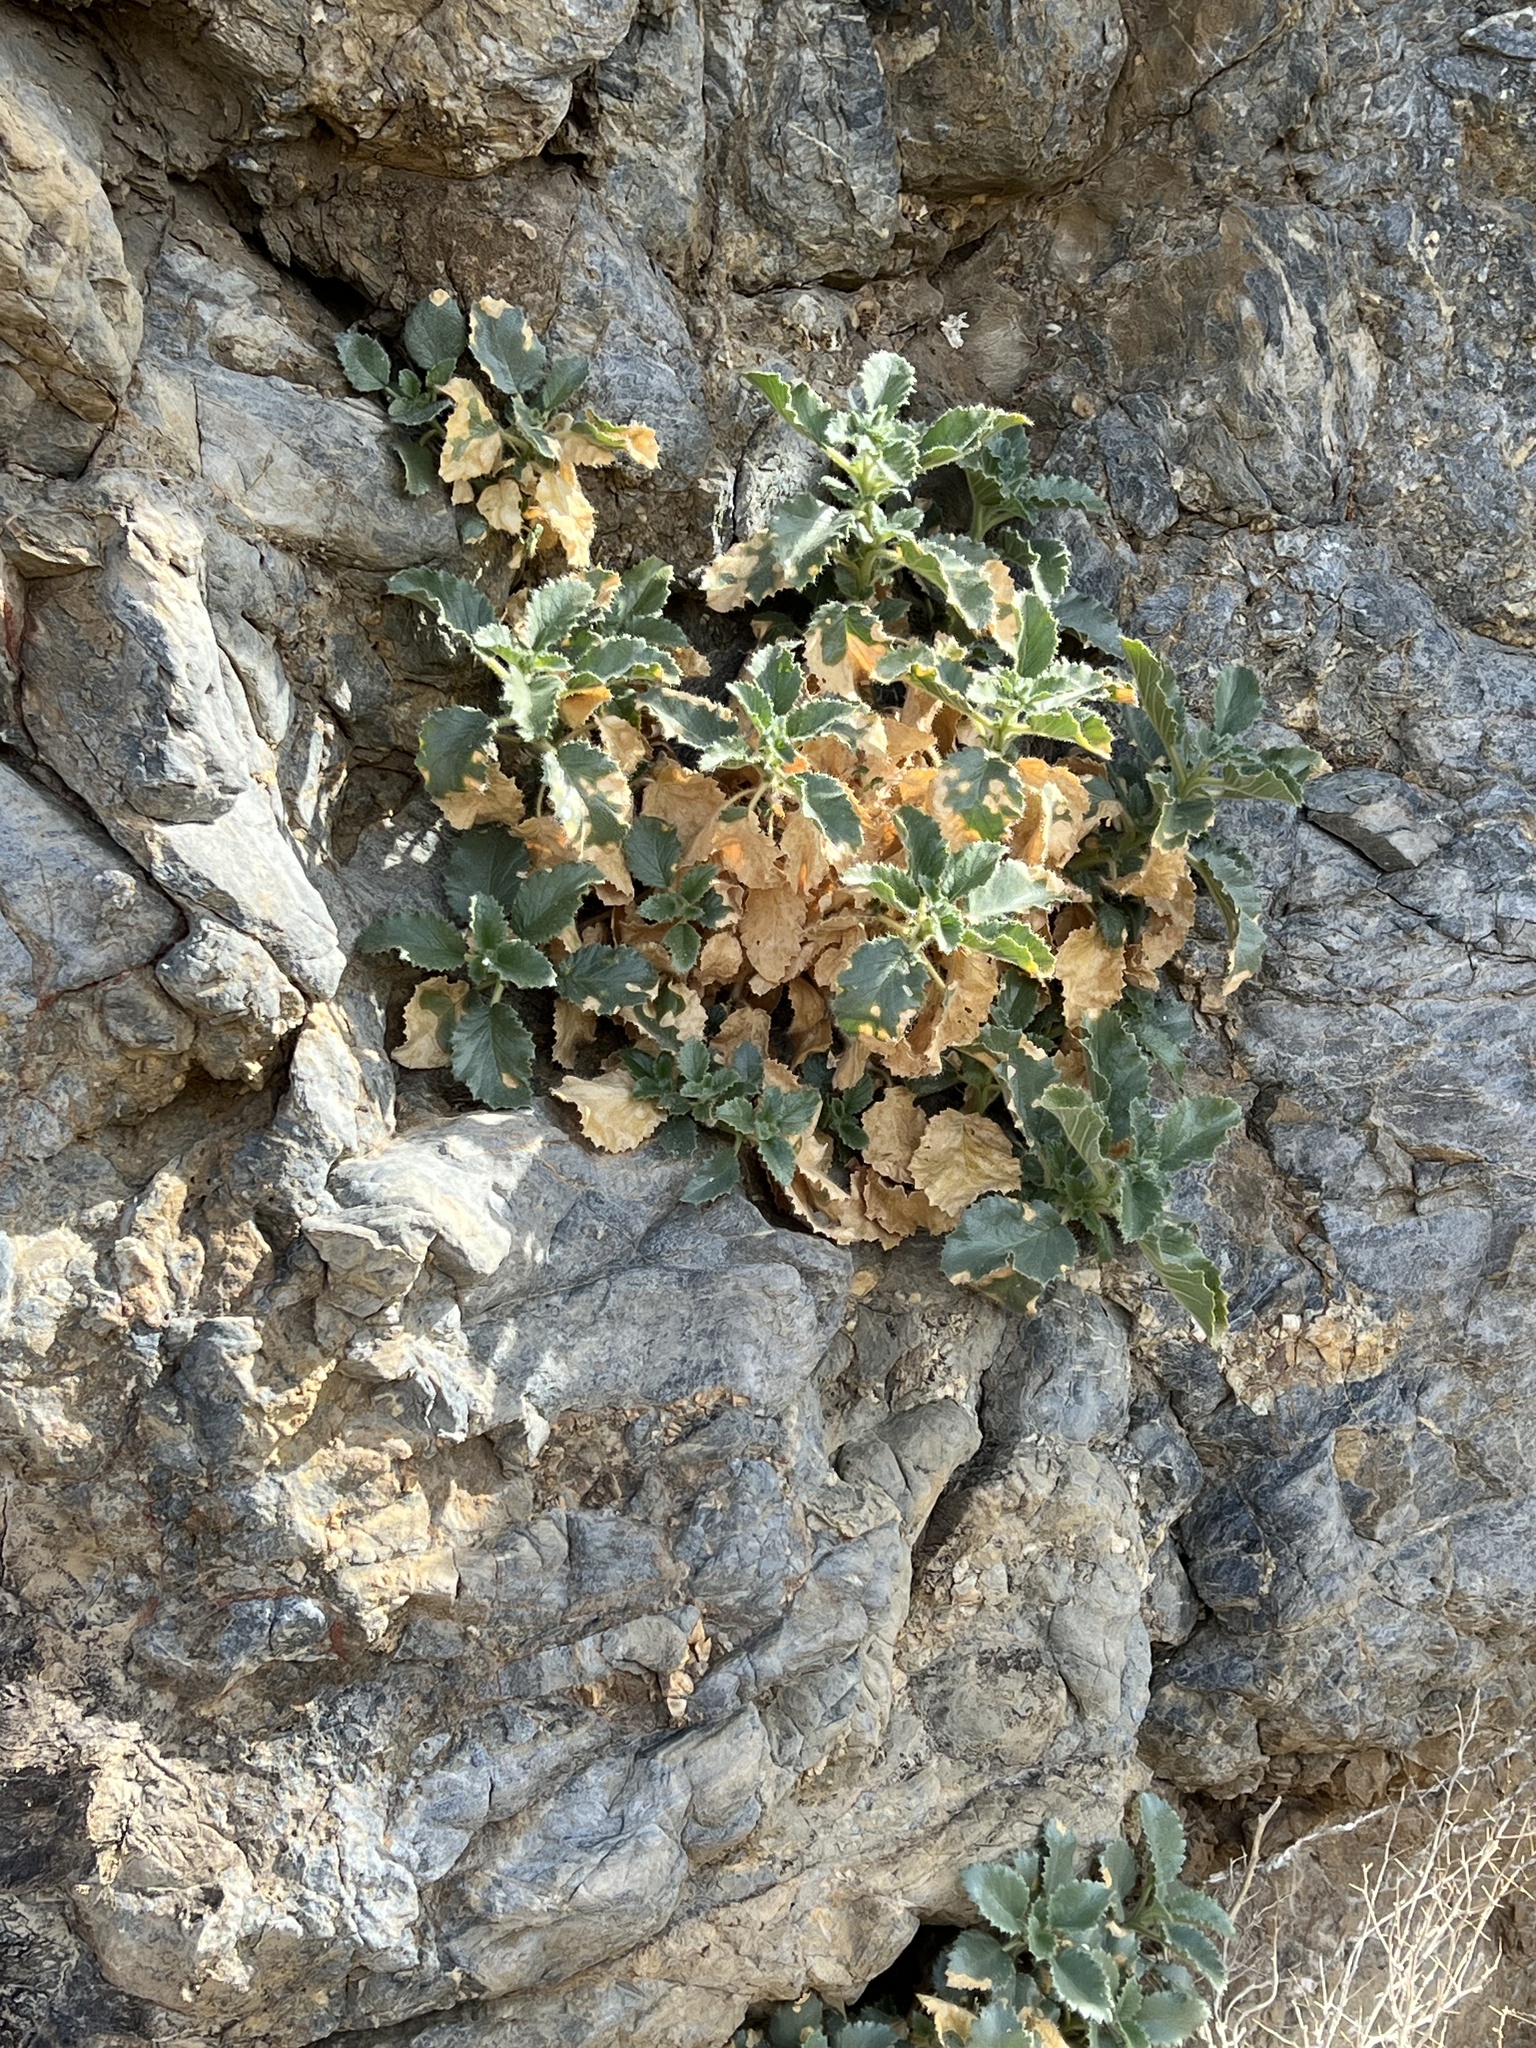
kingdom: Plantae
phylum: Tracheophyta
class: Magnoliopsida
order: Cornales
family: Loasaceae
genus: Eucnide
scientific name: Eucnide urens
